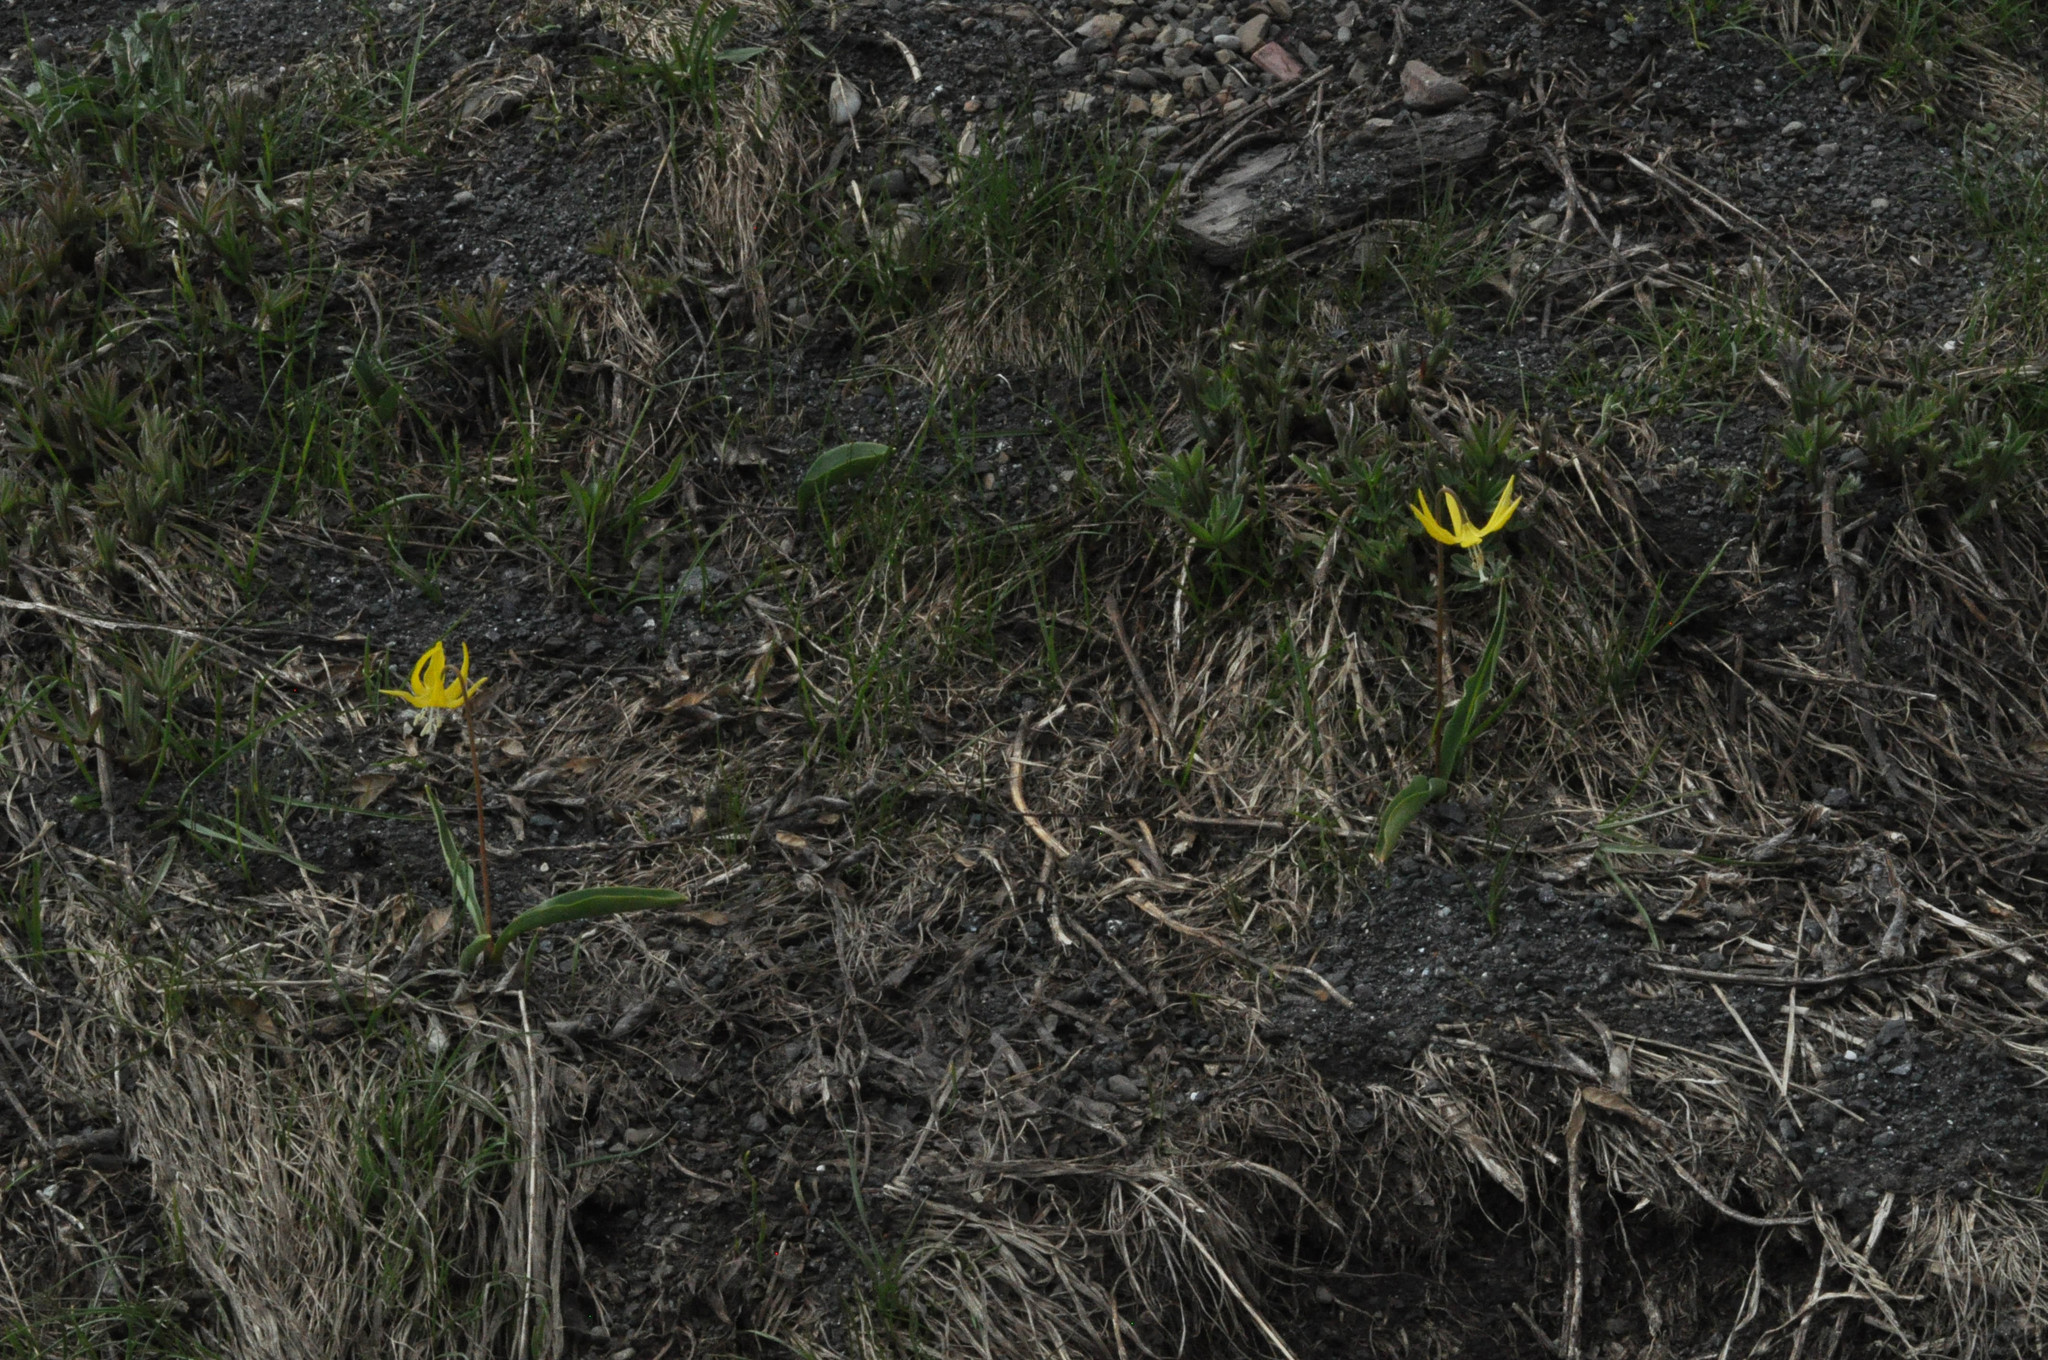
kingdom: Plantae
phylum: Tracheophyta
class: Liliopsida
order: Liliales
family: Liliaceae
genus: Erythronium
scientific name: Erythronium grandiflorum
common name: Avalanche-lily
